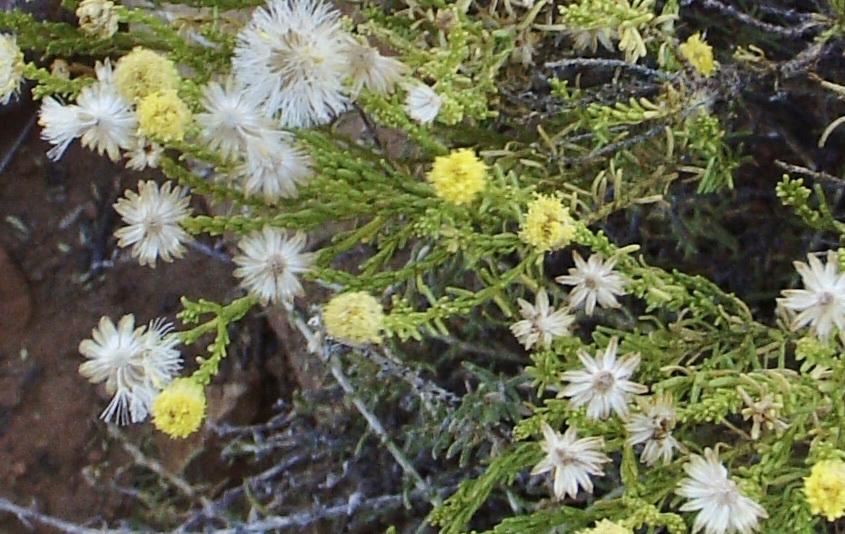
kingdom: Plantae
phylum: Tracheophyta
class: Magnoliopsida
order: Asterales
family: Asteraceae
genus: Chrysocoma
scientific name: Chrysocoma ciliata
